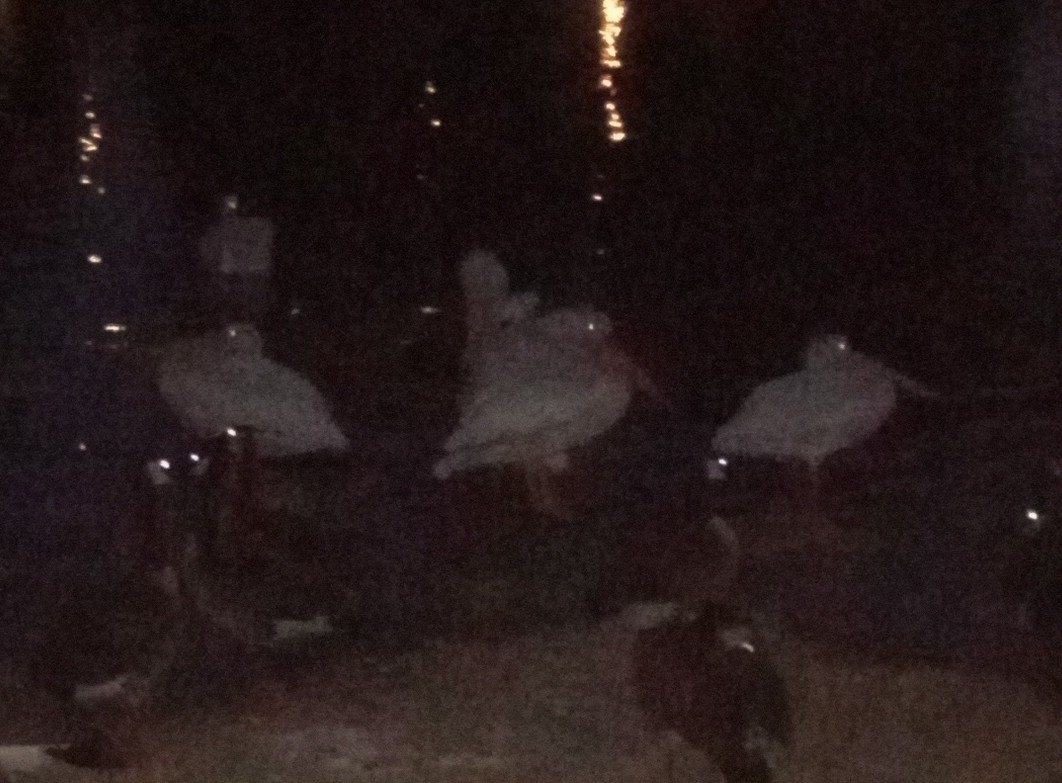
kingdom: Animalia
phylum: Chordata
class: Aves
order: Pelecaniformes
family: Pelecanidae
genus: Pelecanus
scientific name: Pelecanus erythrorhynchos
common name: American white pelican
